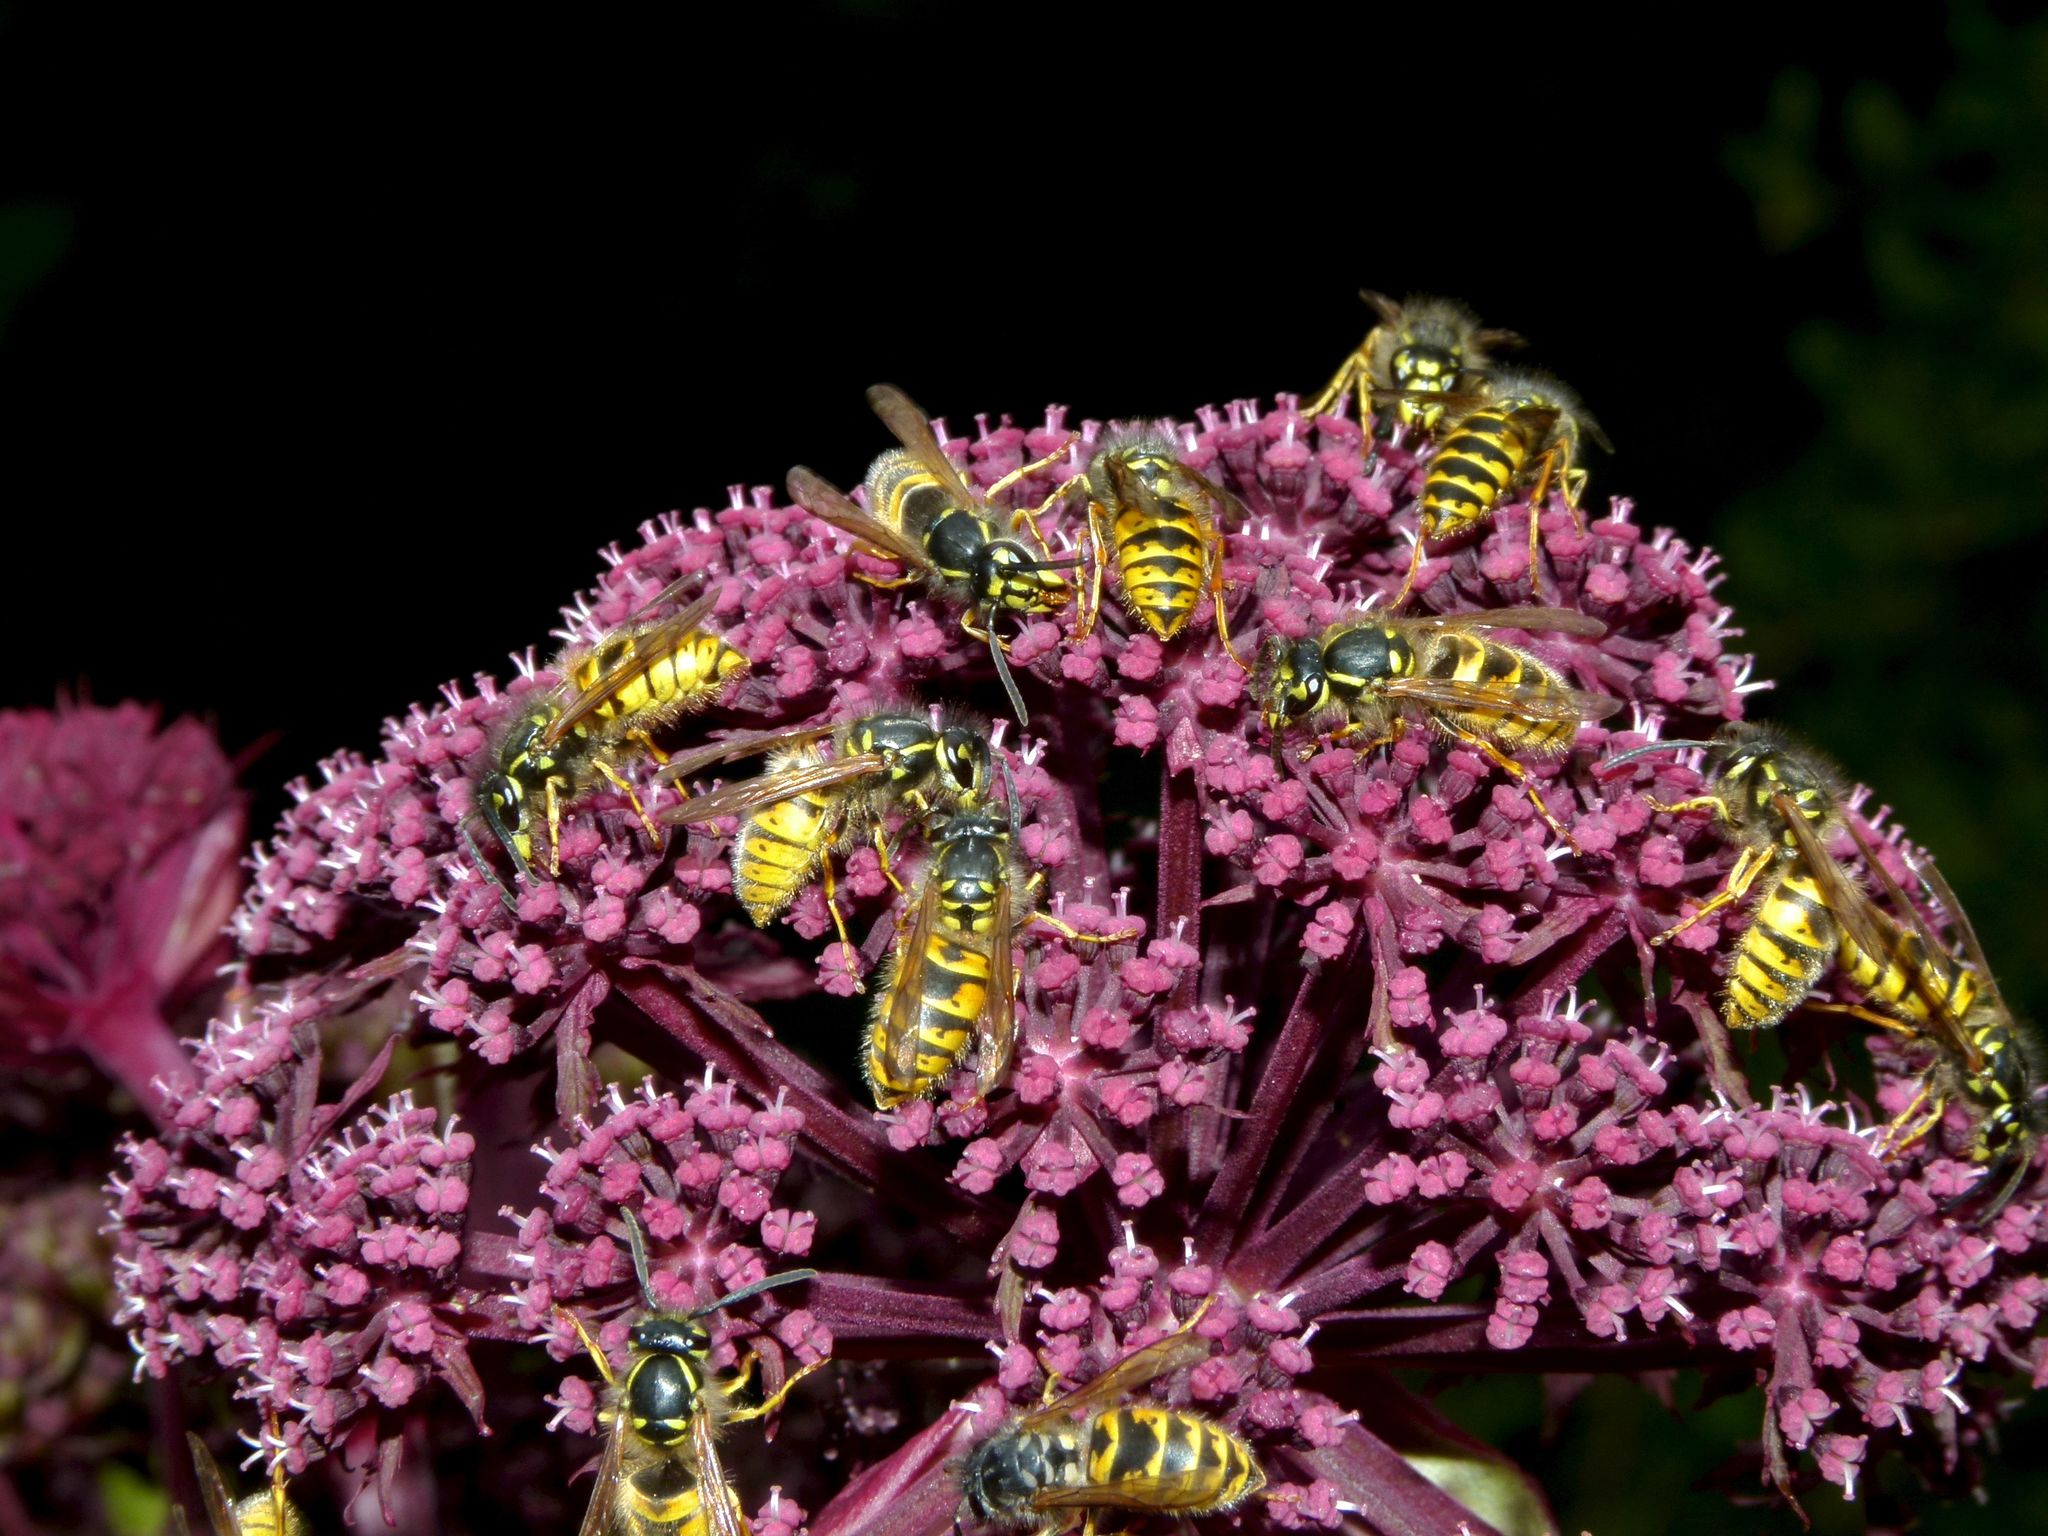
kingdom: Animalia
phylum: Arthropoda
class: Insecta
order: Hymenoptera
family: Vespidae
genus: Vespula
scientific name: Vespula vulgaris
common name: Common wasp
